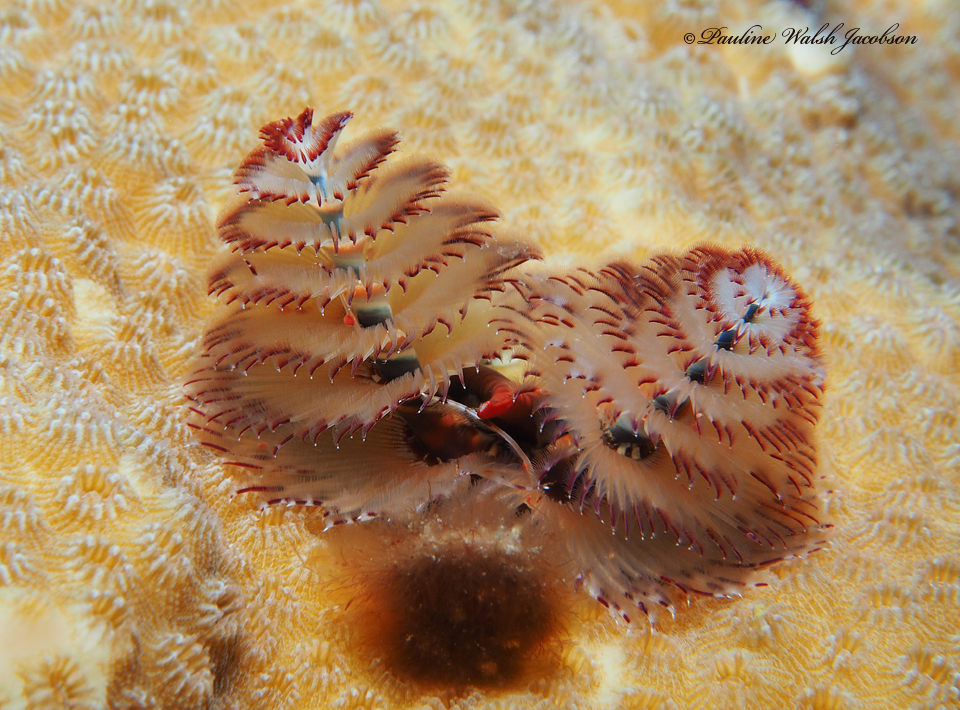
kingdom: Animalia
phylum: Annelida
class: Polychaeta
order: Sabellida
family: Serpulidae
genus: Spirobranchus
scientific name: Spirobranchus giganteus
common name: Christmas tree worm
